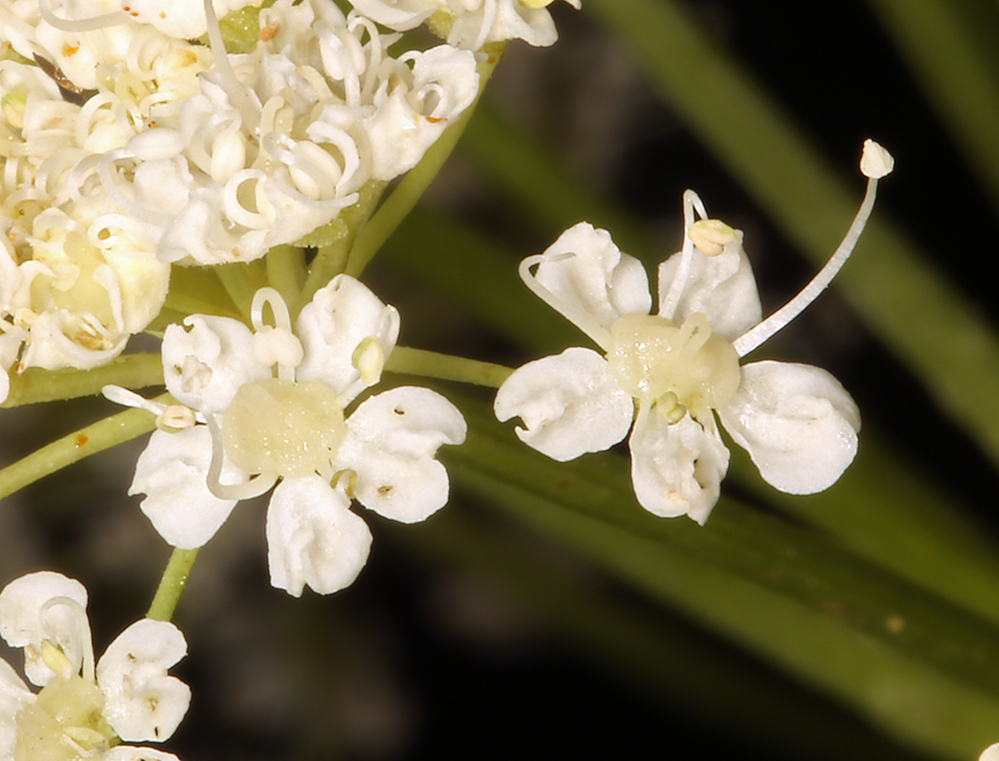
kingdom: Plantae
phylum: Tracheophyta
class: Magnoliopsida
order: Apiales
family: Apiaceae
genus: Angelica
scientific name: Angelica lineariloba
